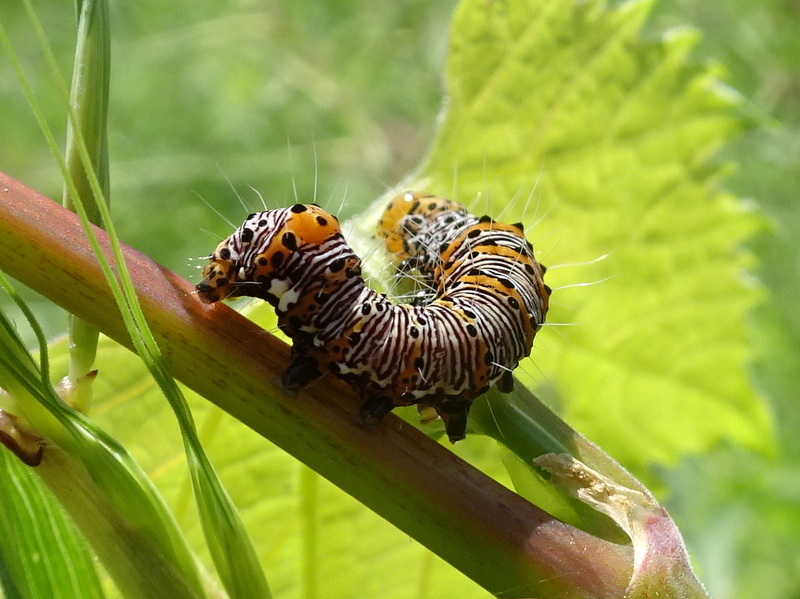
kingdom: Animalia
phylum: Arthropoda
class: Insecta
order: Lepidoptera
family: Noctuidae
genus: Alypia
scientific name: Alypia octomaculata
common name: Eight-spotted forester
